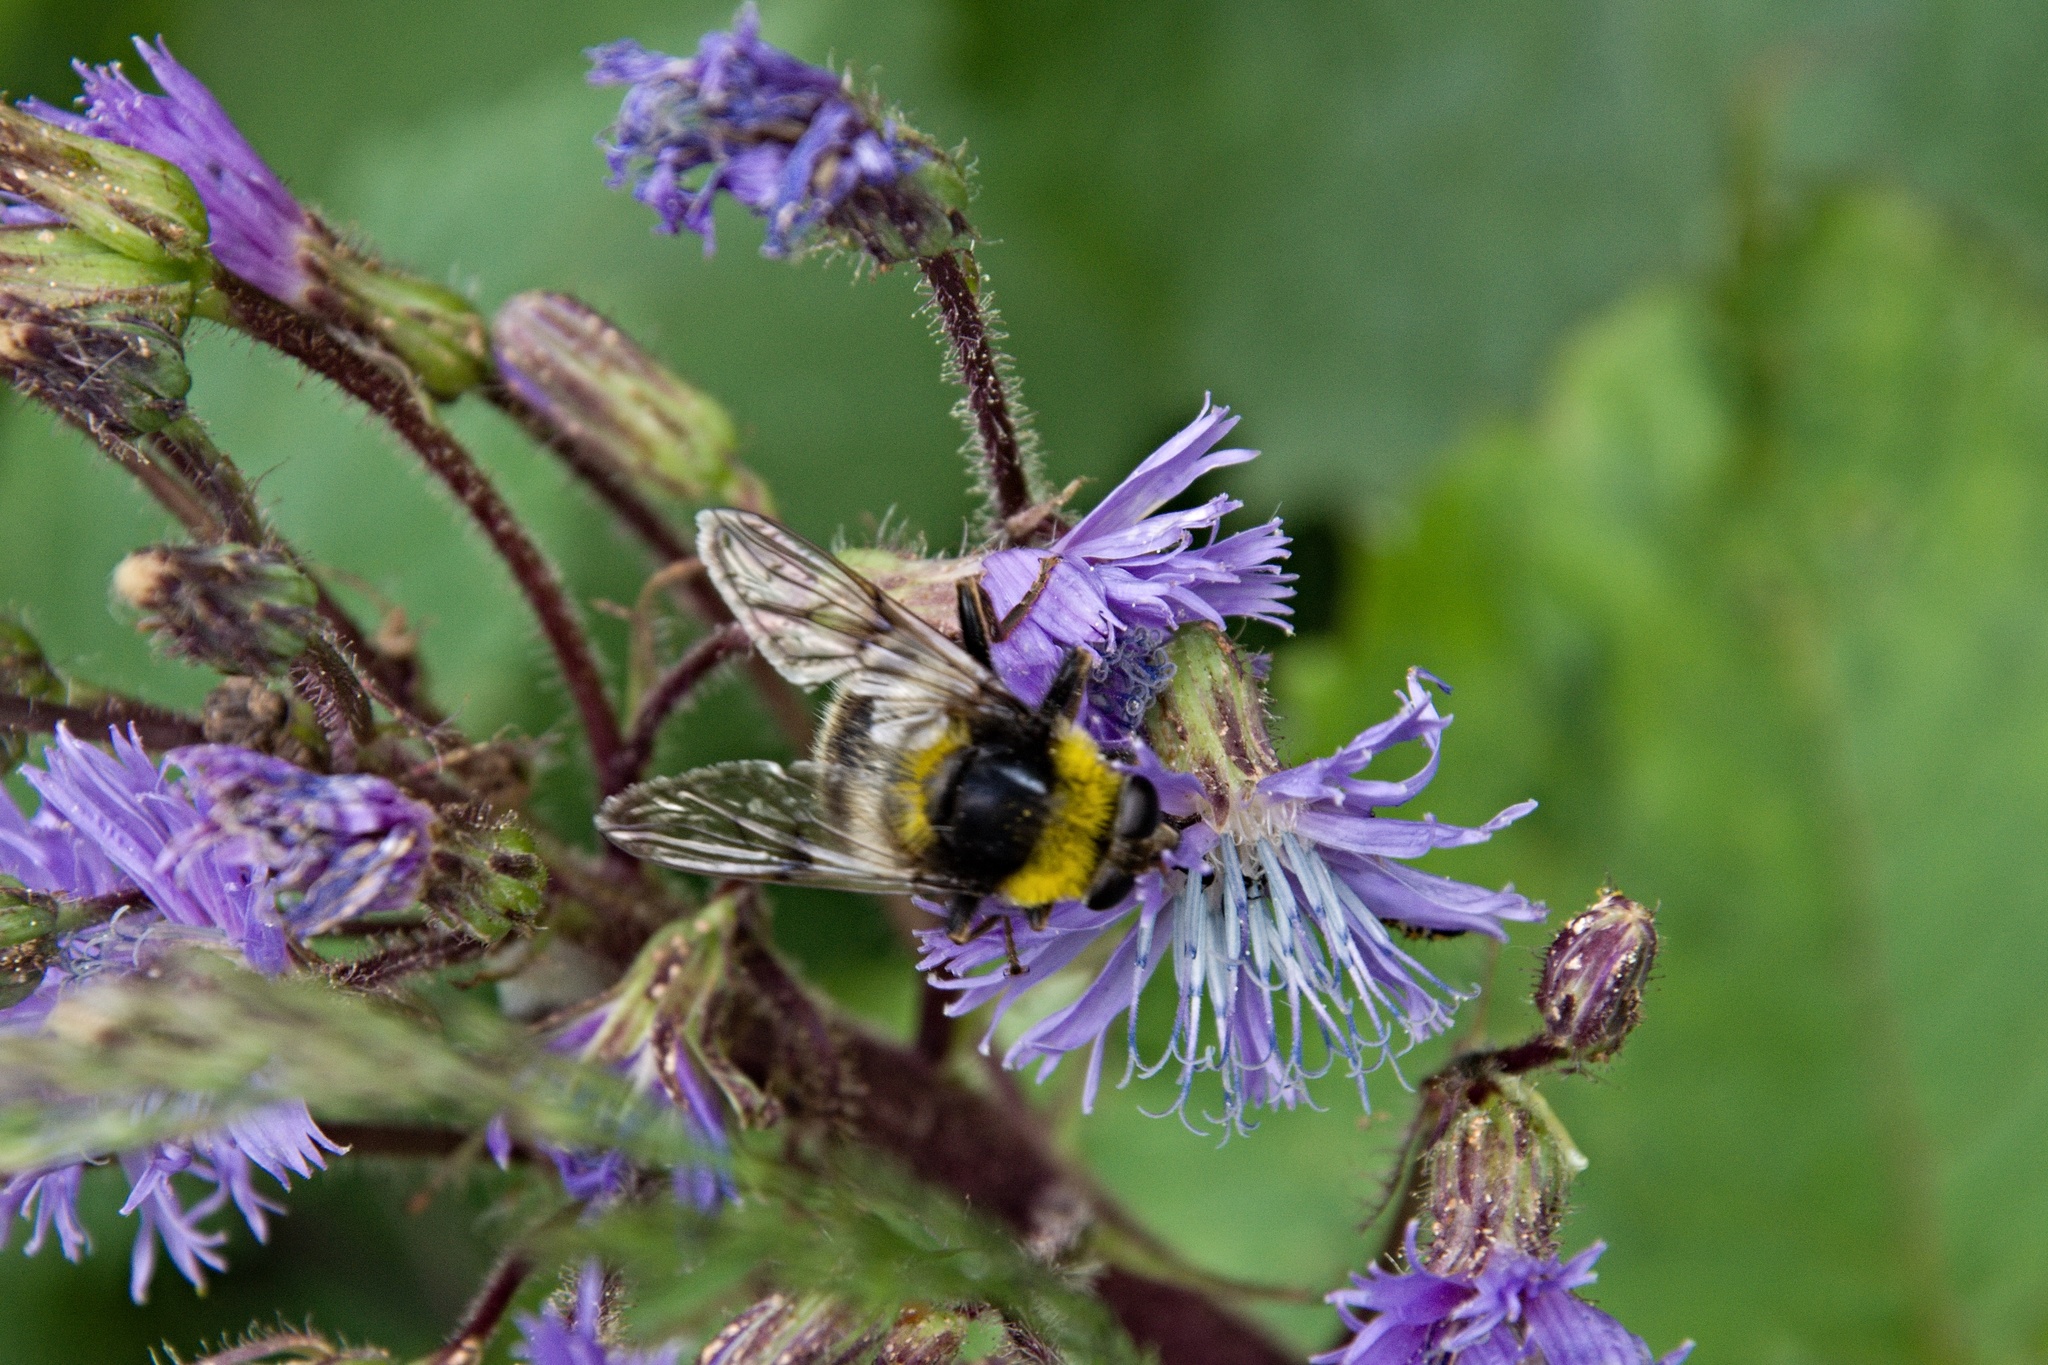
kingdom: Animalia
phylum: Arthropoda
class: Insecta
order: Diptera
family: Syrphidae
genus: Sericomyia
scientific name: Sericomyia bombiformis
